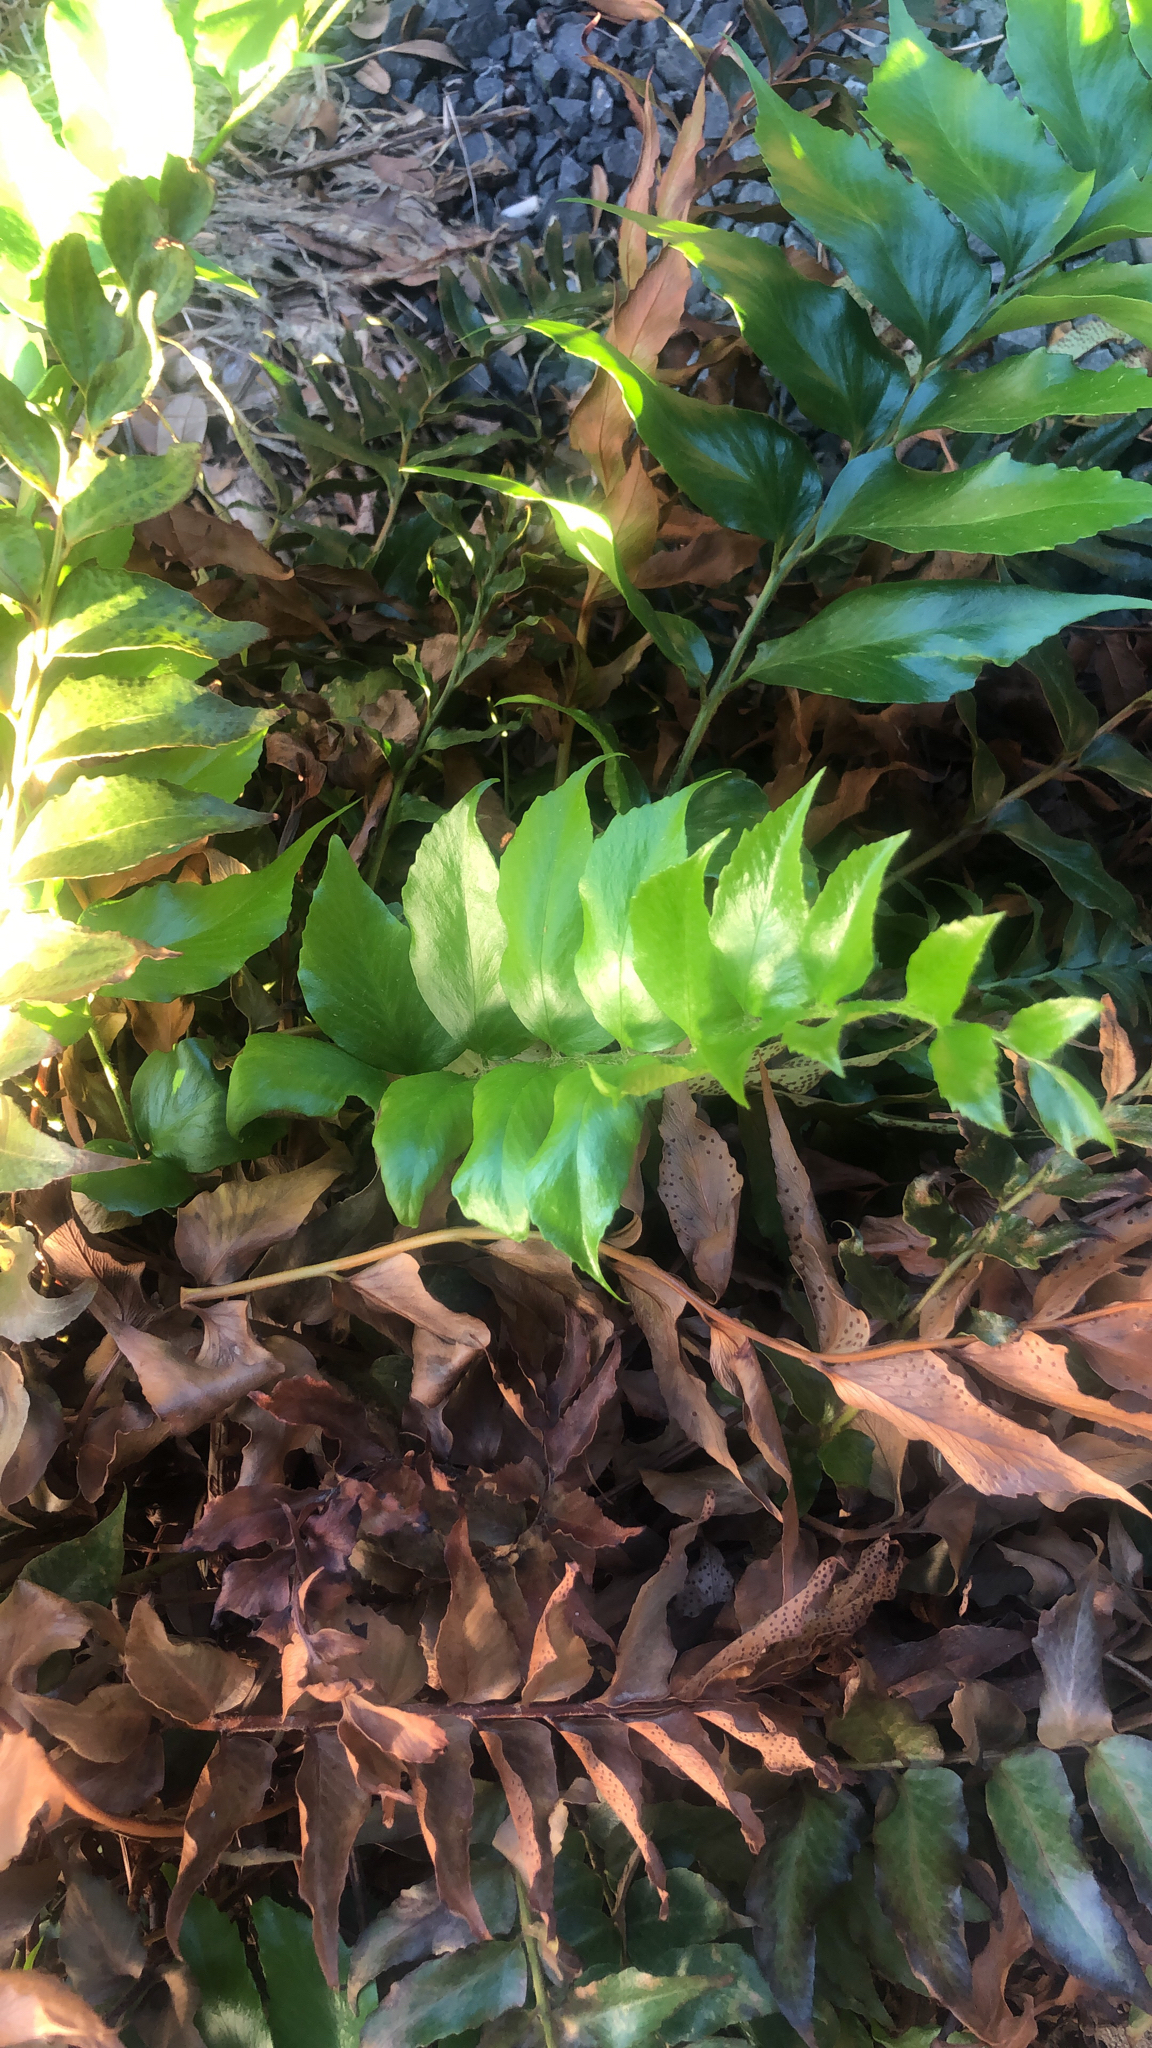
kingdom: Plantae
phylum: Tracheophyta
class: Polypodiopsida
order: Polypodiales
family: Dryopteridaceae
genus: Cyrtomium
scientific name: Cyrtomium falcatum
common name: House holly-fern
